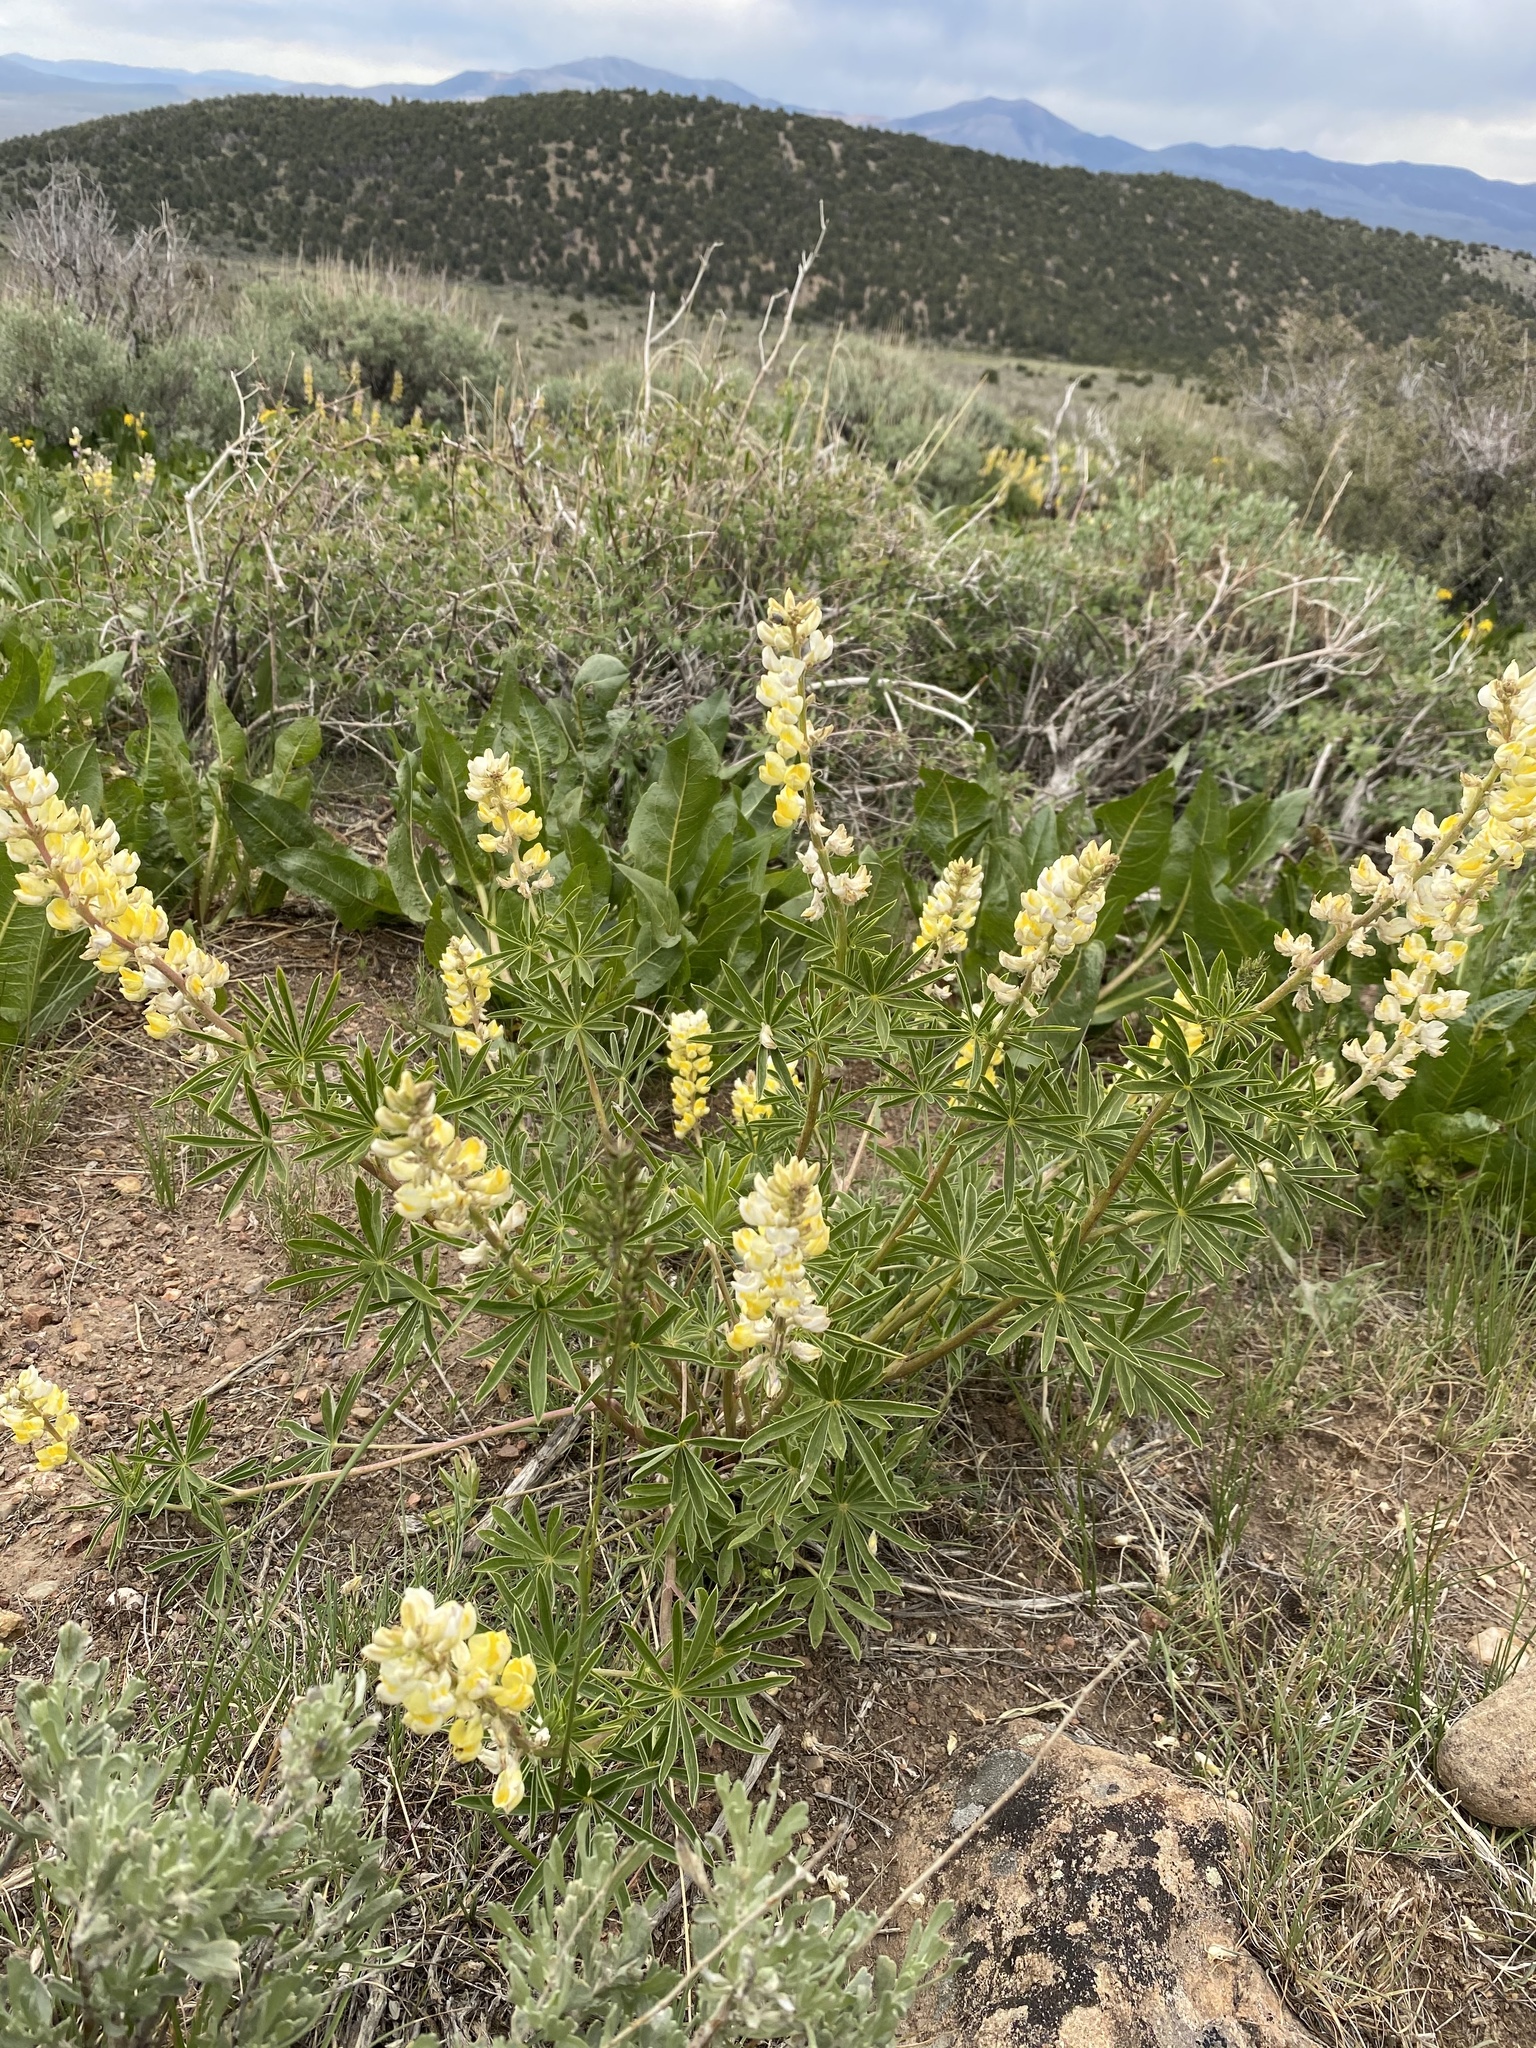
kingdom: Plantae
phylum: Tracheophyta
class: Magnoliopsida
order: Fabales
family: Fabaceae
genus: Lupinus
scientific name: Lupinus arbustus
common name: Montana lupine
